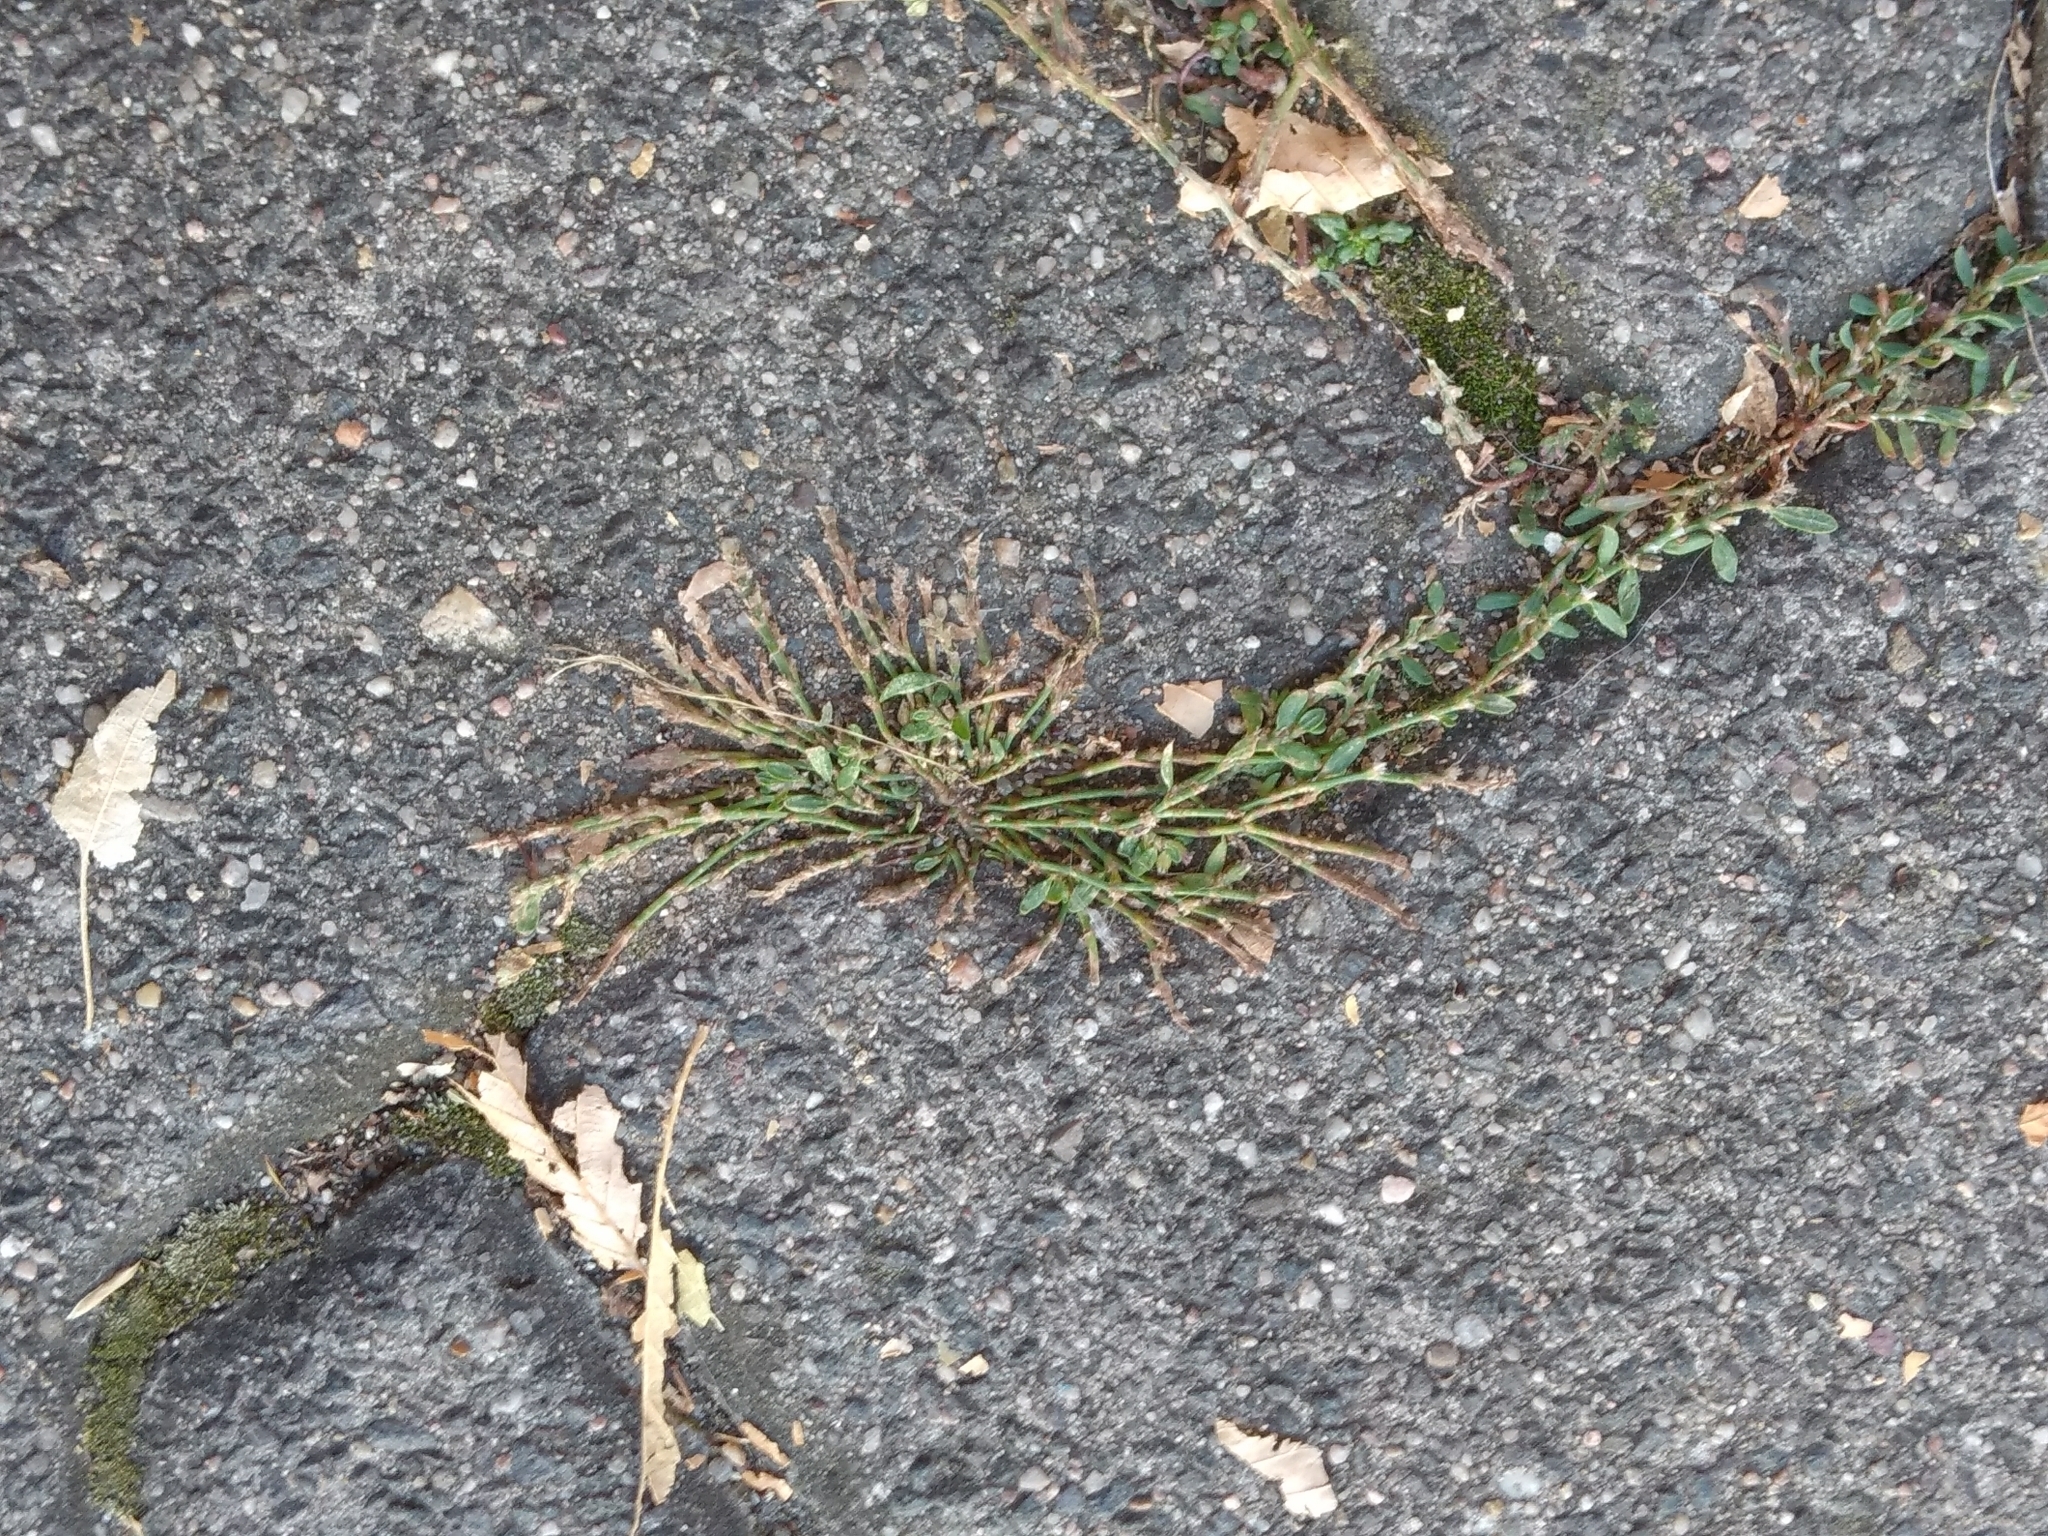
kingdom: Plantae
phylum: Tracheophyta
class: Magnoliopsida
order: Caryophyllales
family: Polygonaceae
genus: Polygonum
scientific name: Polygonum arenastrum
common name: Equal-leaved knotgrass
